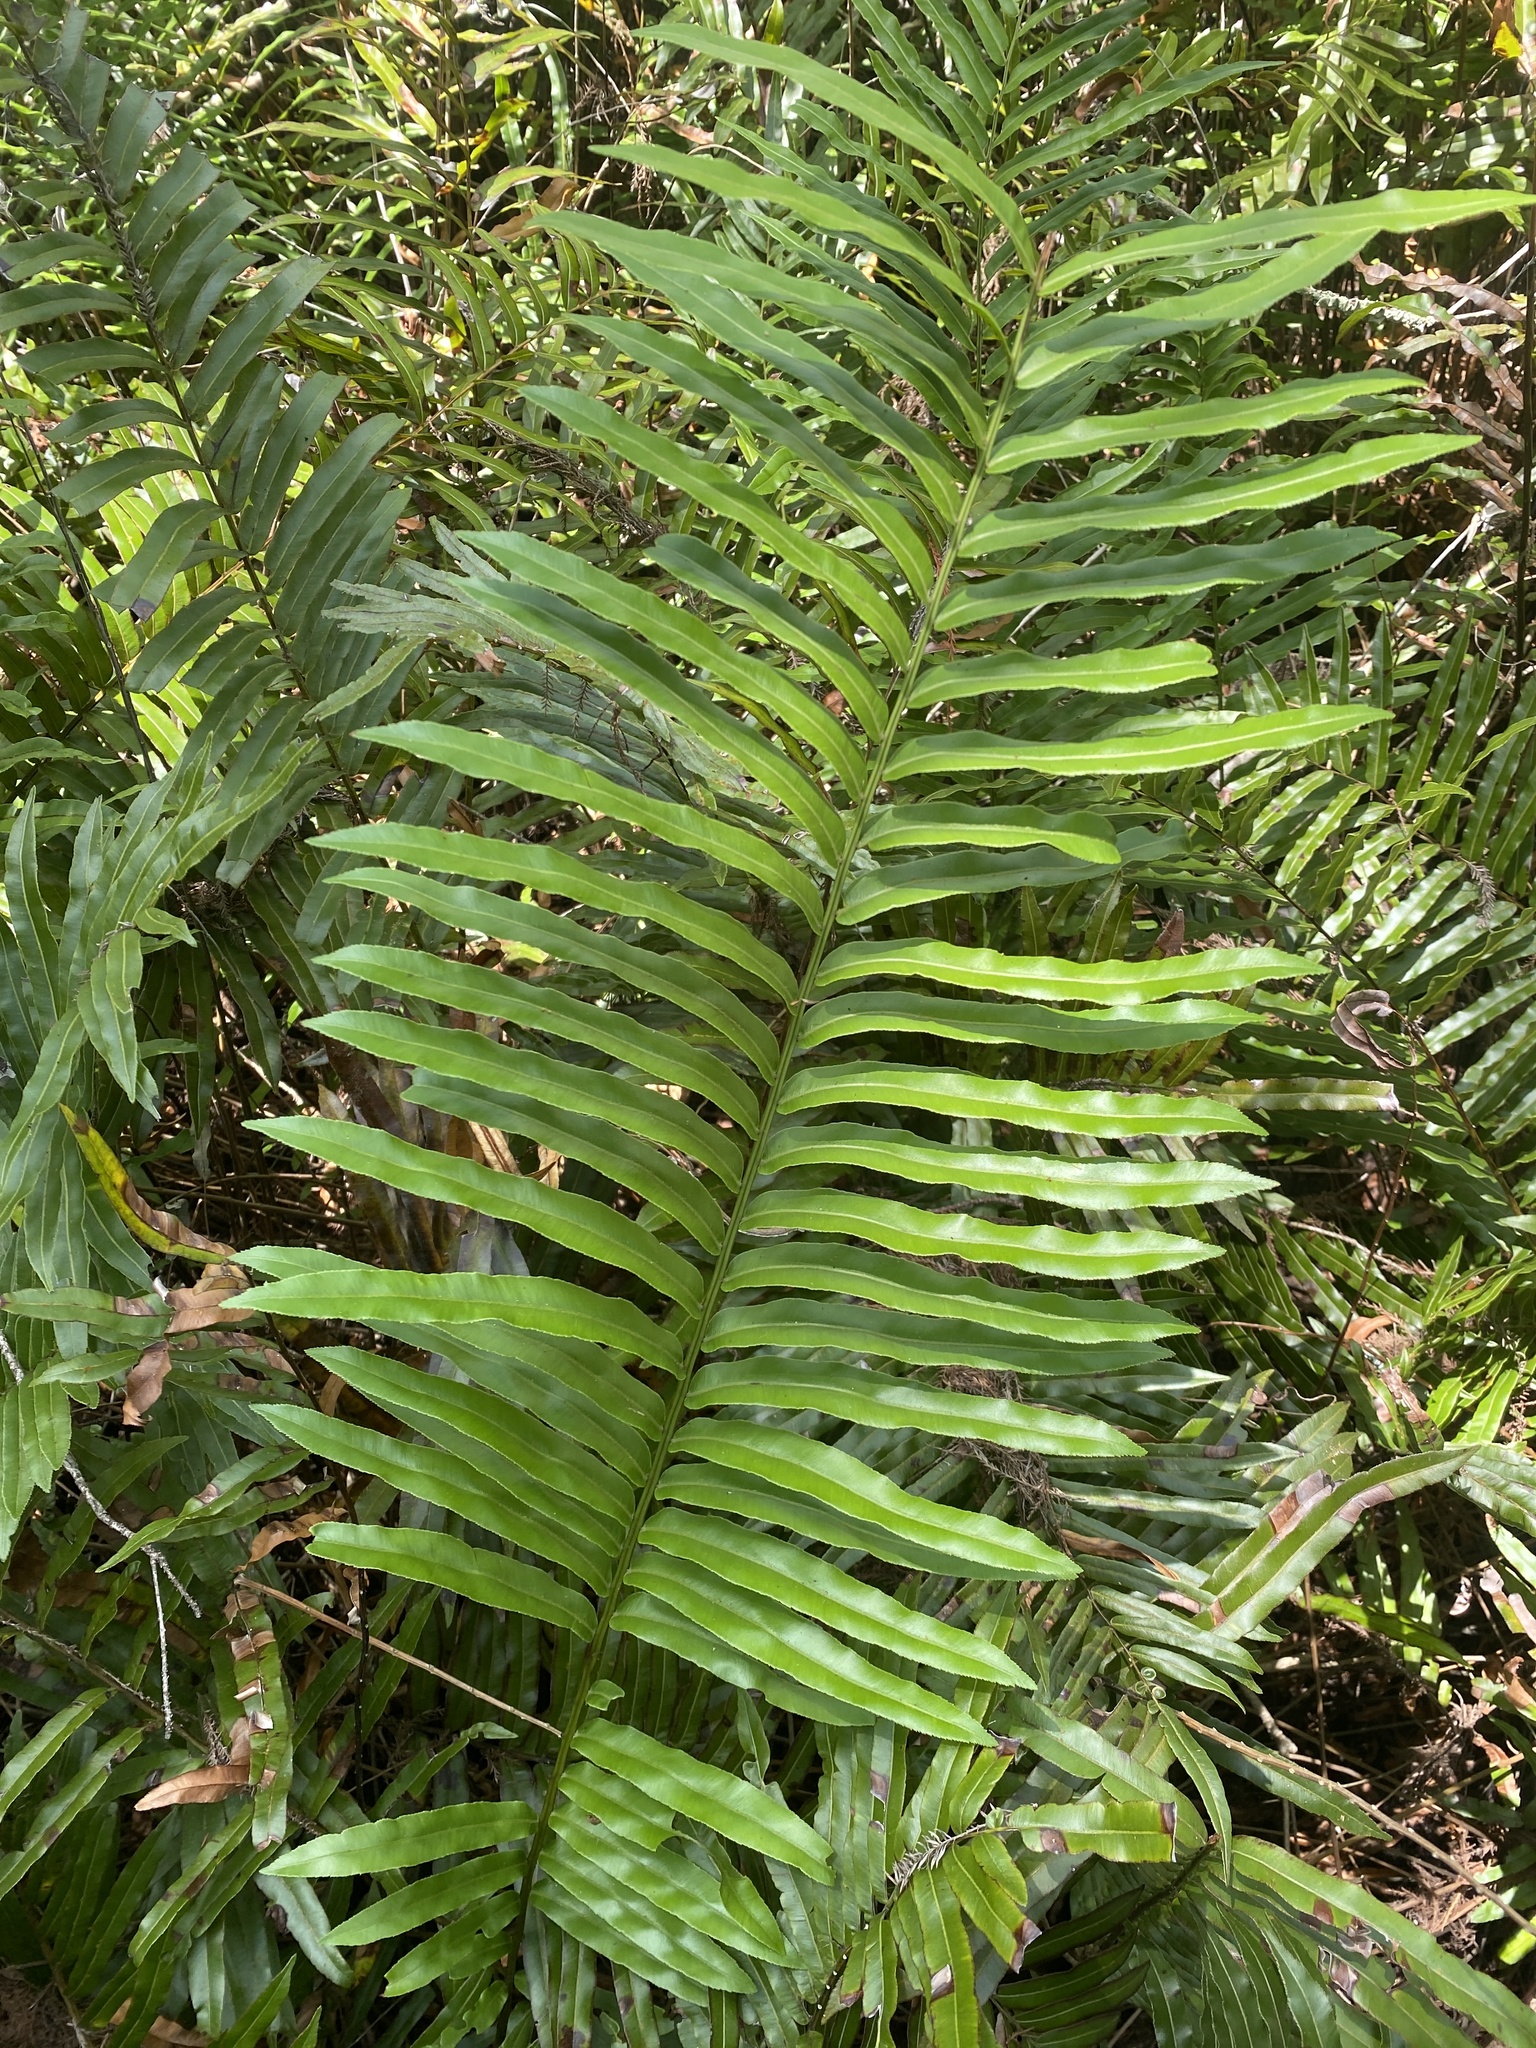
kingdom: Plantae
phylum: Tracheophyta
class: Polypodiopsida
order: Polypodiales
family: Blechnaceae
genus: Telmatoblechnum
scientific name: Telmatoblechnum serrulatum
